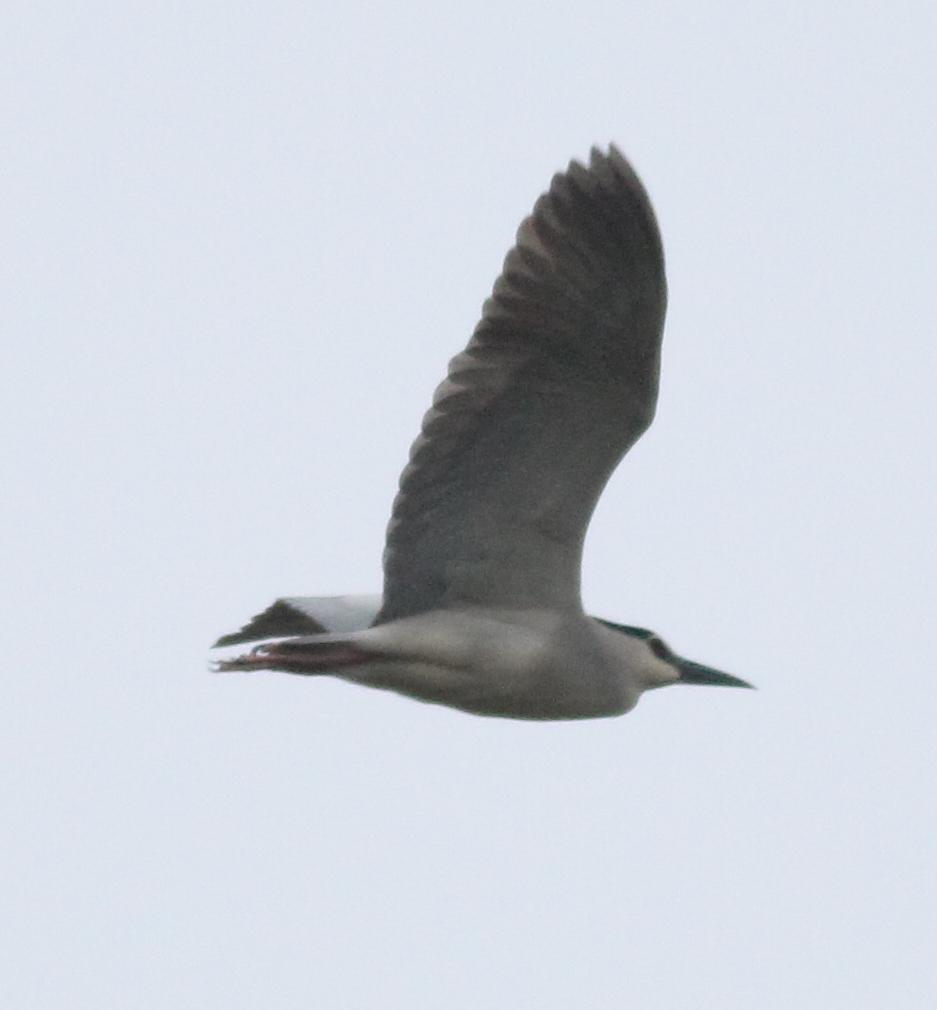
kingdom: Animalia
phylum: Chordata
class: Aves
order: Pelecaniformes
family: Ardeidae
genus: Nycticorax
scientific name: Nycticorax nycticorax
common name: Black-crowned night heron
